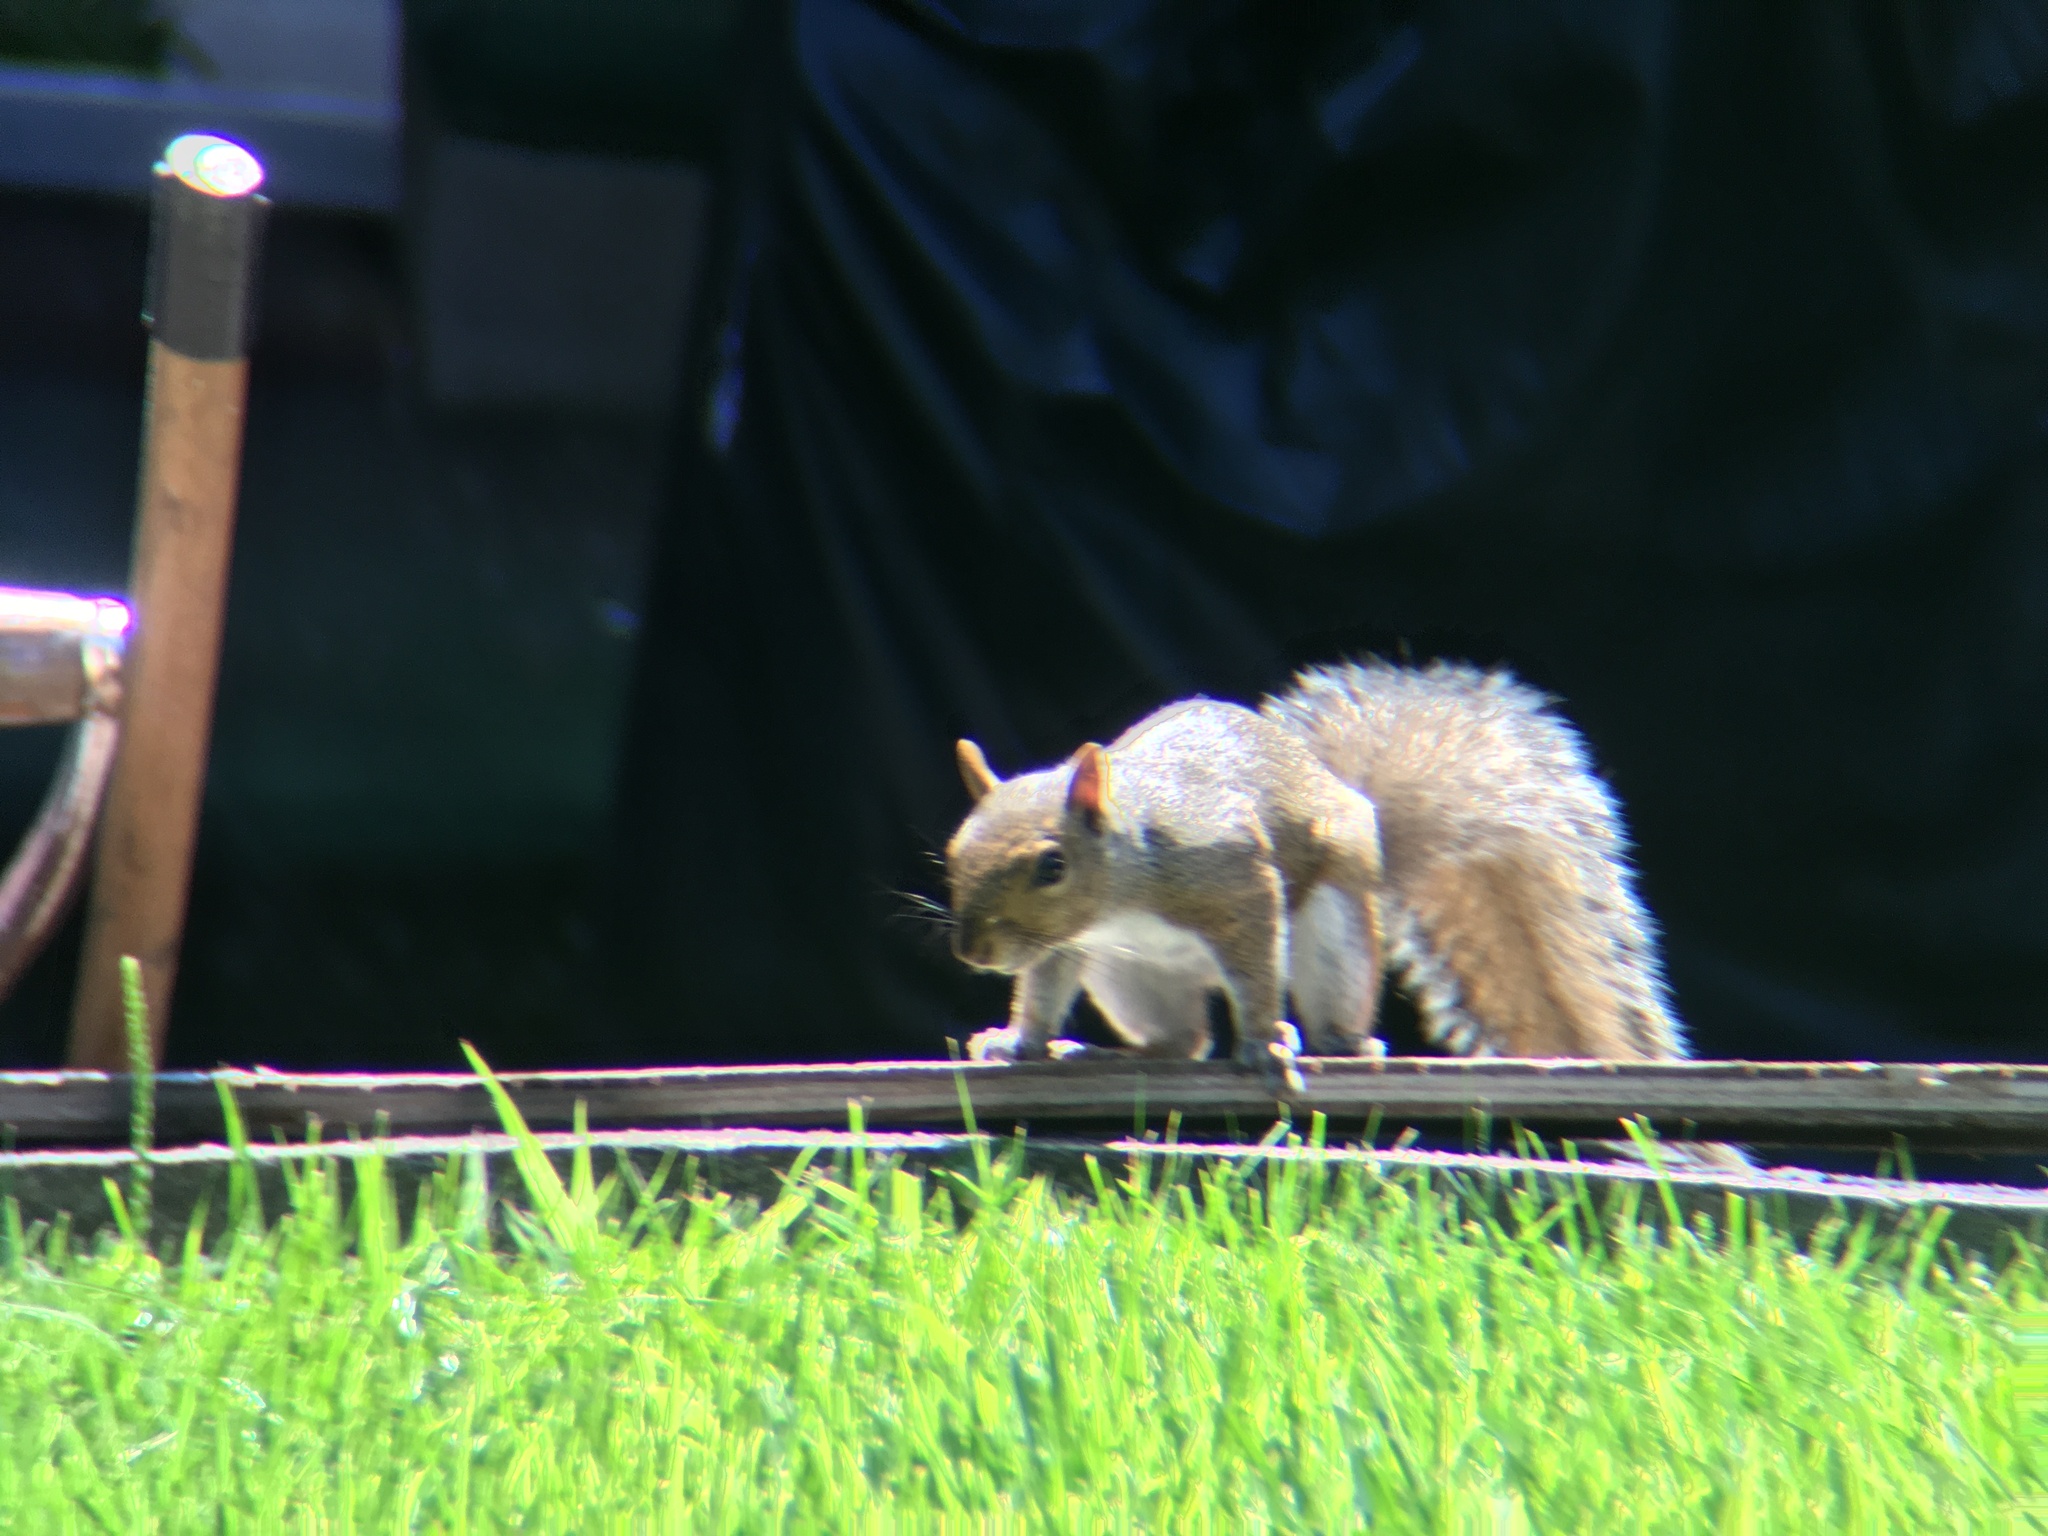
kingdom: Animalia
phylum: Chordata
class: Mammalia
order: Rodentia
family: Sciuridae
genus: Sciurus
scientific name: Sciurus carolinensis
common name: Eastern gray squirrel
